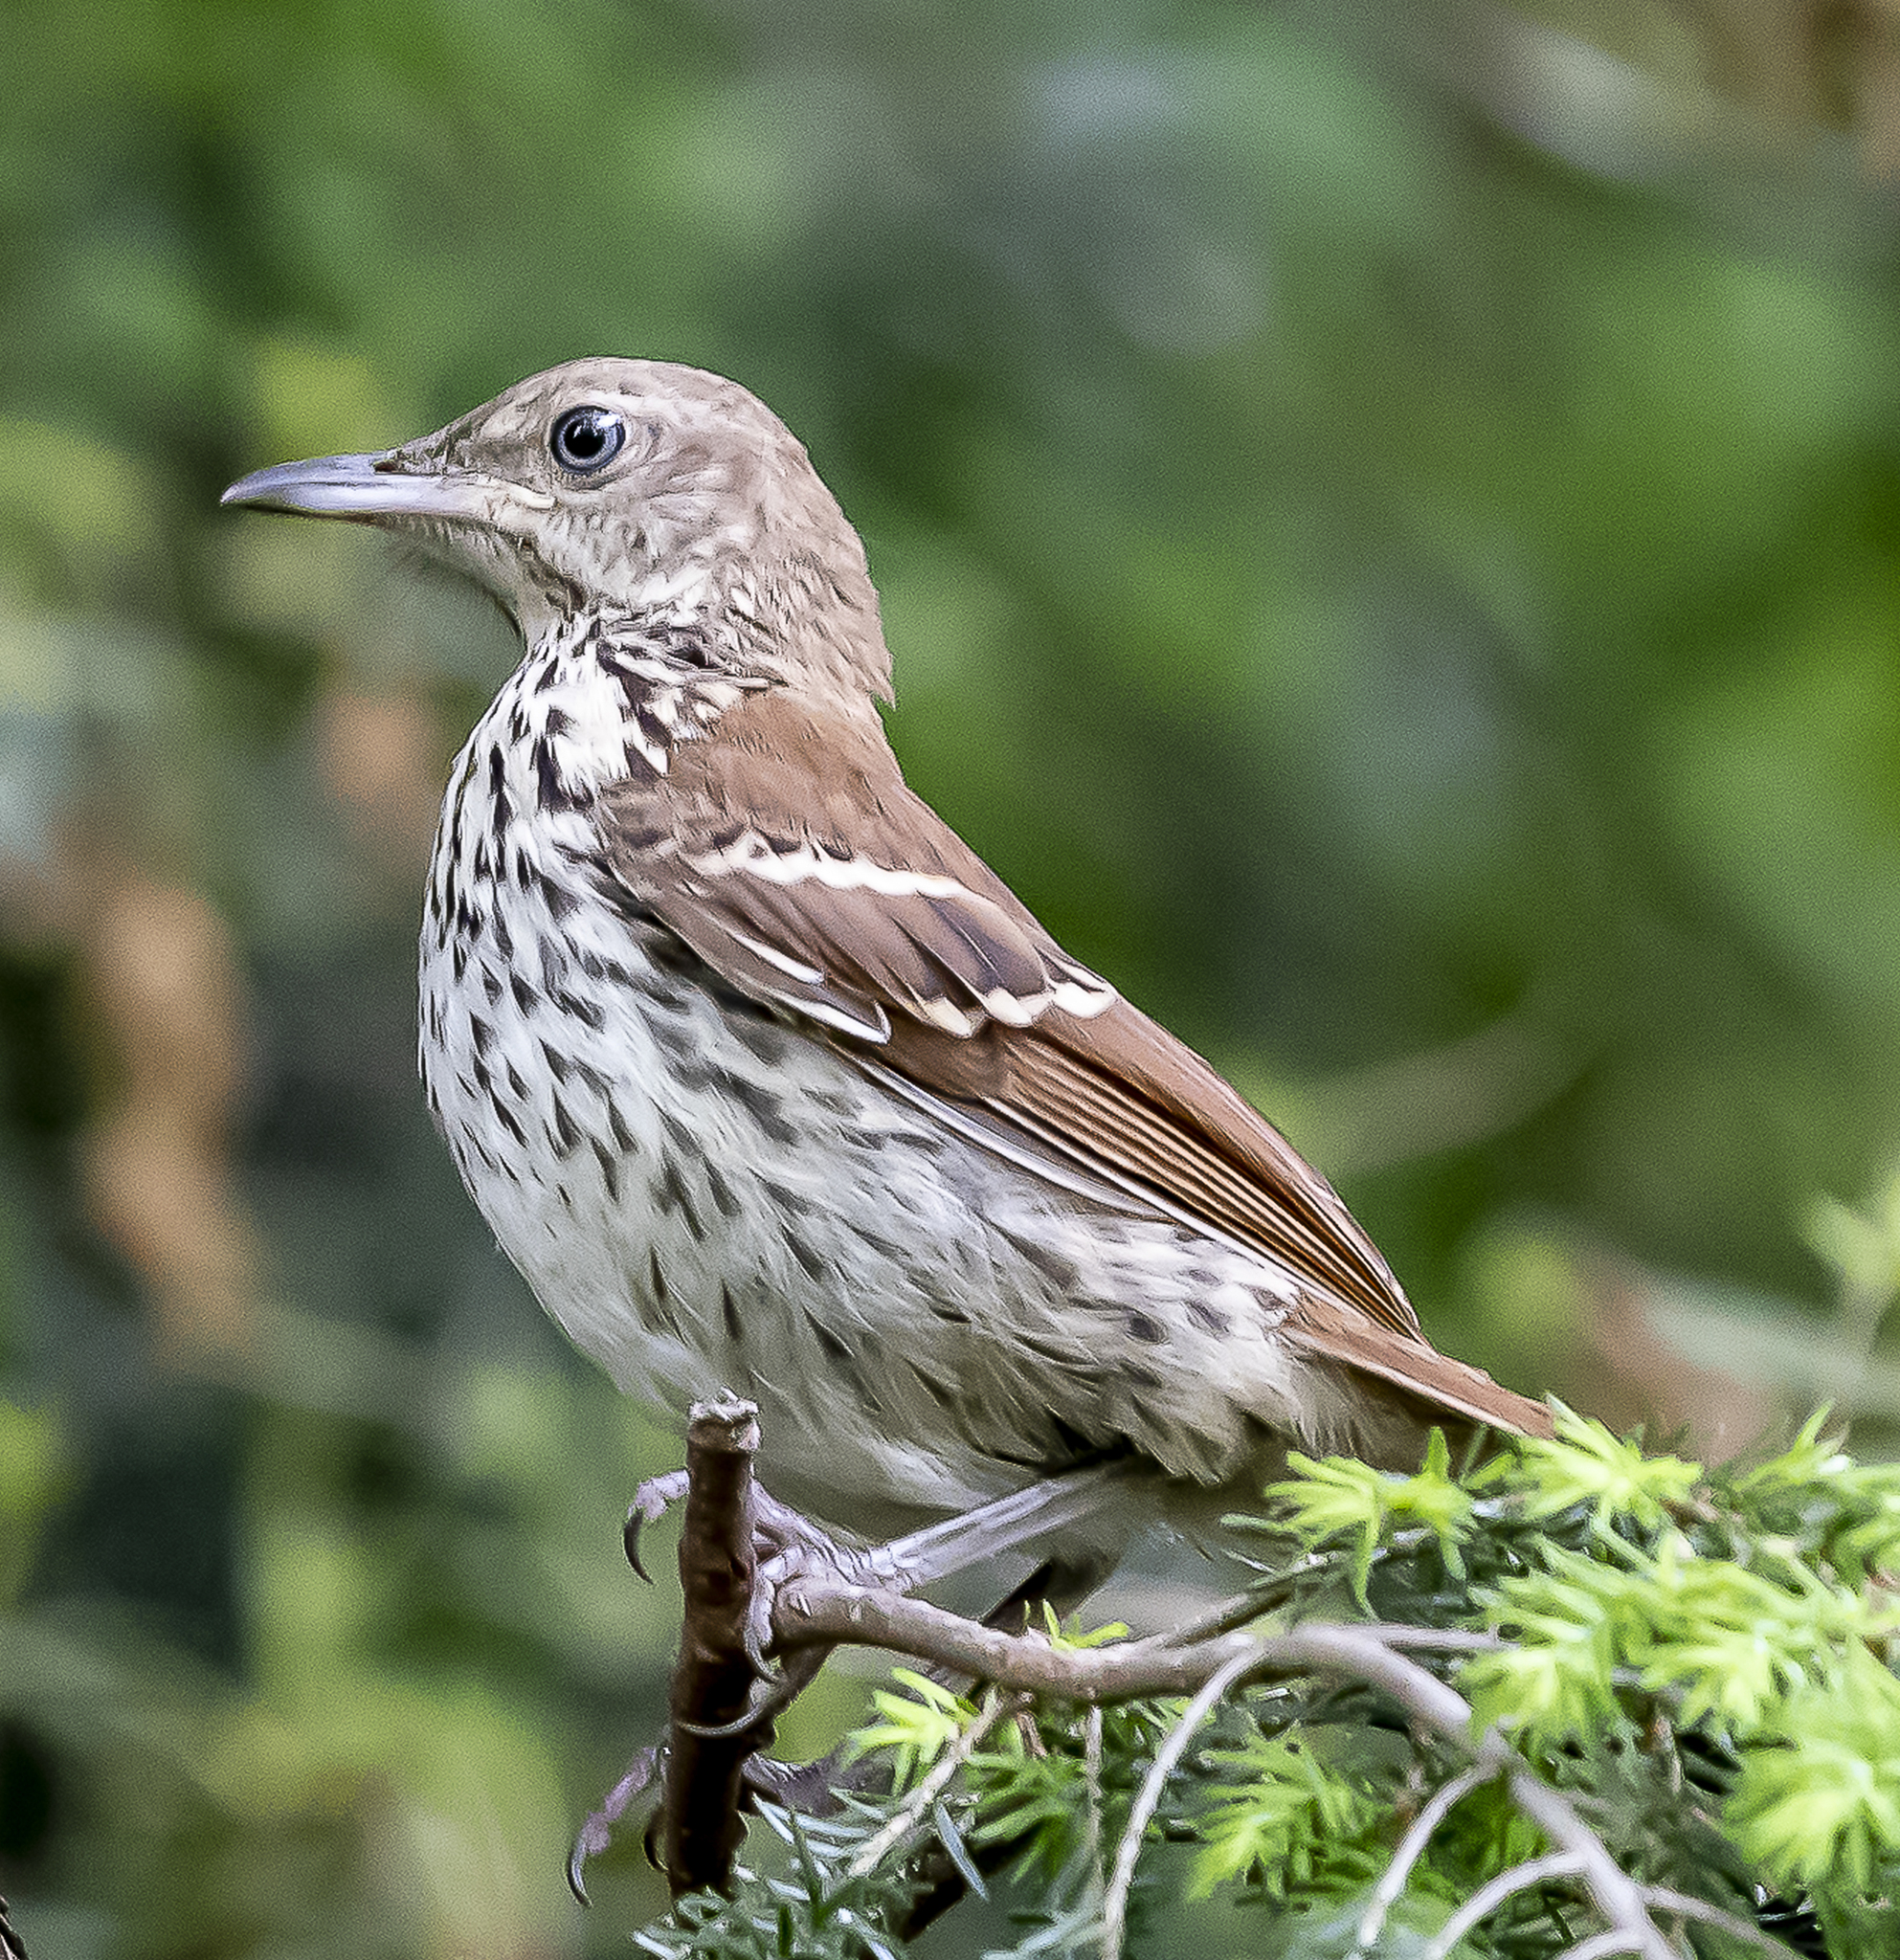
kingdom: Animalia
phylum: Chordata
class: Aves
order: Passeriformes
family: Mimidae
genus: Toxostoma
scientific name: Toxostoma rufum
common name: Brown thrasher
